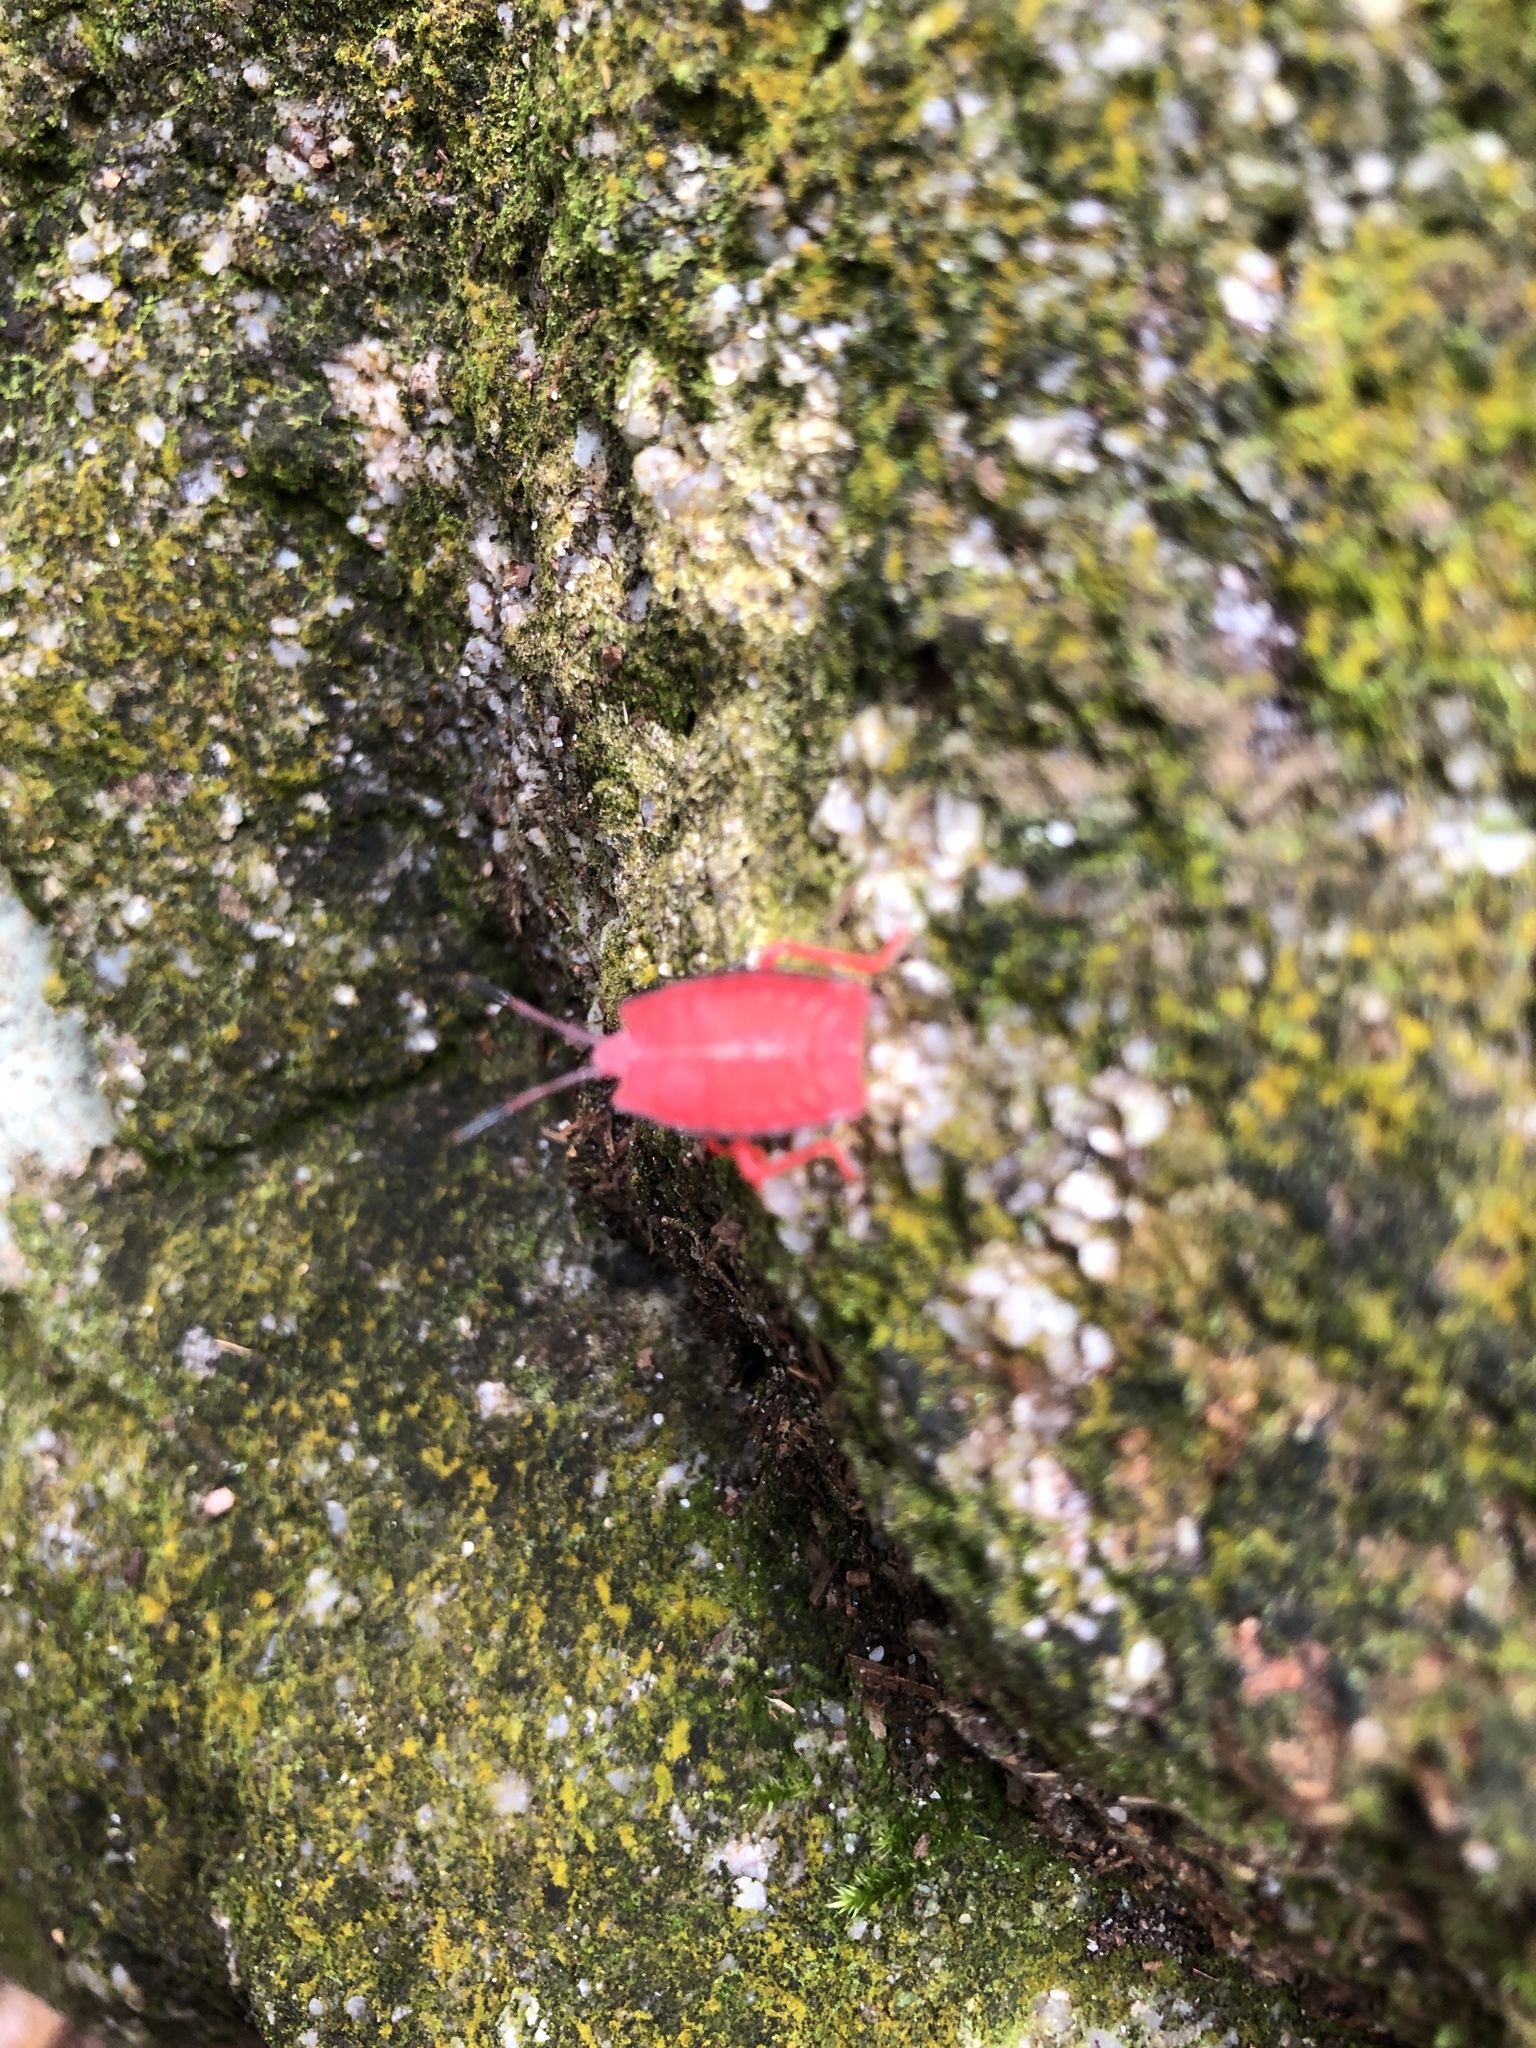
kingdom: Animalia
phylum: Arthropoda
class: Insecta
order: Hemiptera
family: Tessaratomidae
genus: Eurostus
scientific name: Eurostus validus
